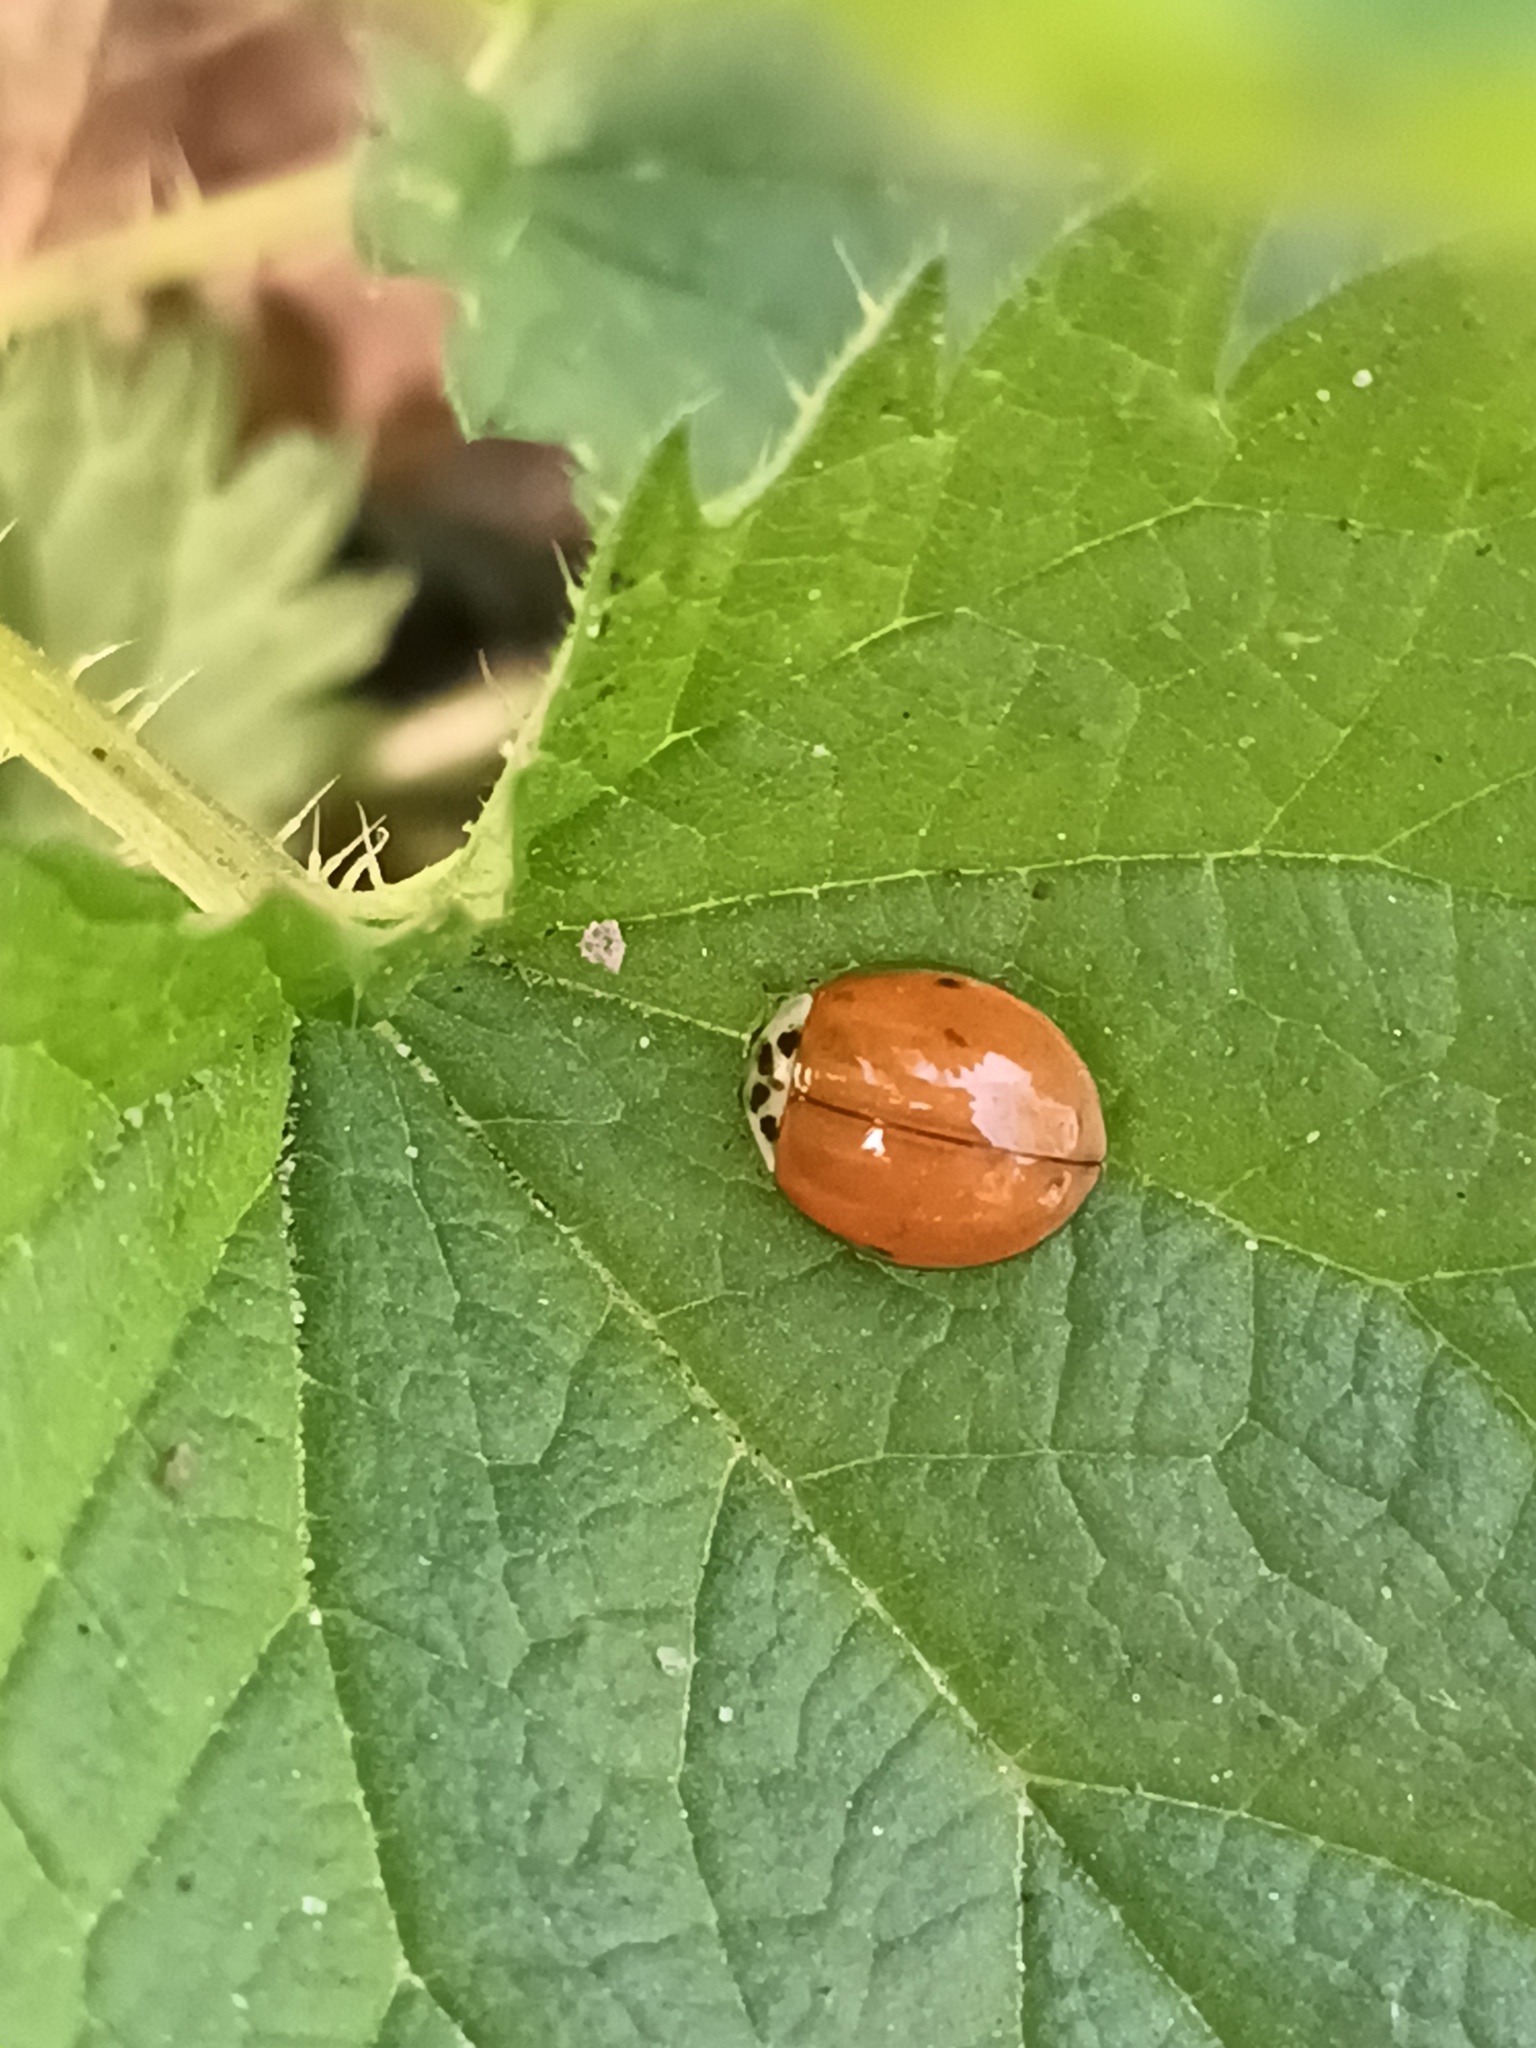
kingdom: Animalia
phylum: Arthropoda
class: Insecta
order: Coleoptera
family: Coccinellidae
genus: Harmonia
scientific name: Harmonia axyridis
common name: Harlequin ladybird
